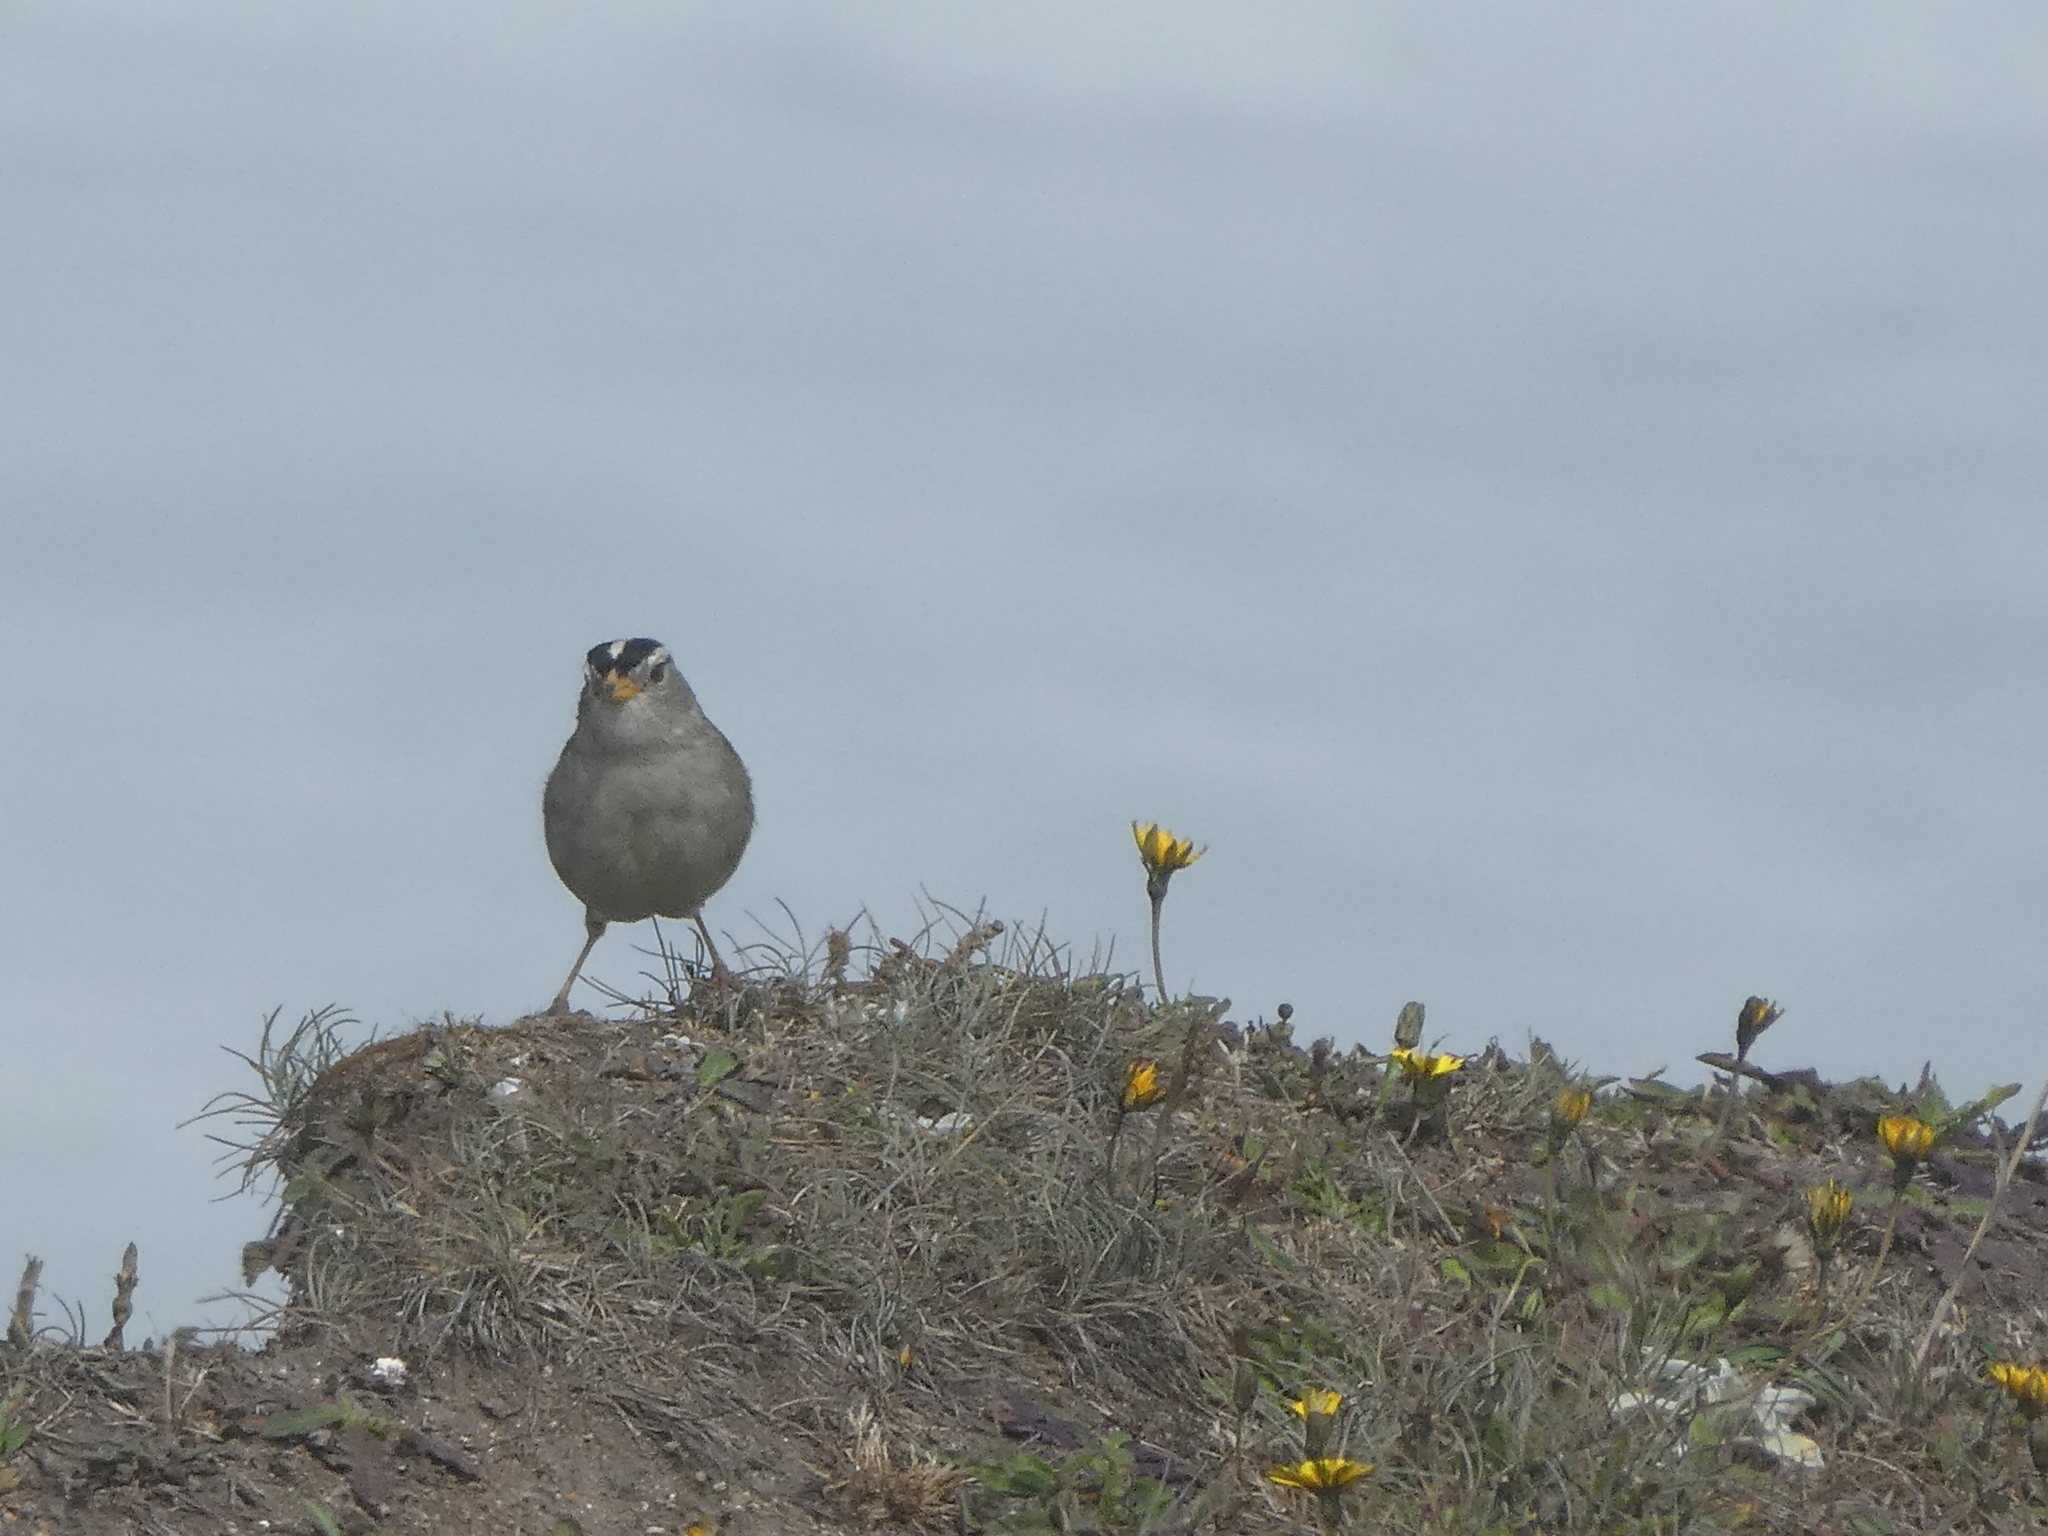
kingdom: Animalia
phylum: Chordata
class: Aves
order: Passeriformes
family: Passerellidae
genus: Zonotrichia
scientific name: Zonotrichia leucophrys
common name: White-crowned sparrow
